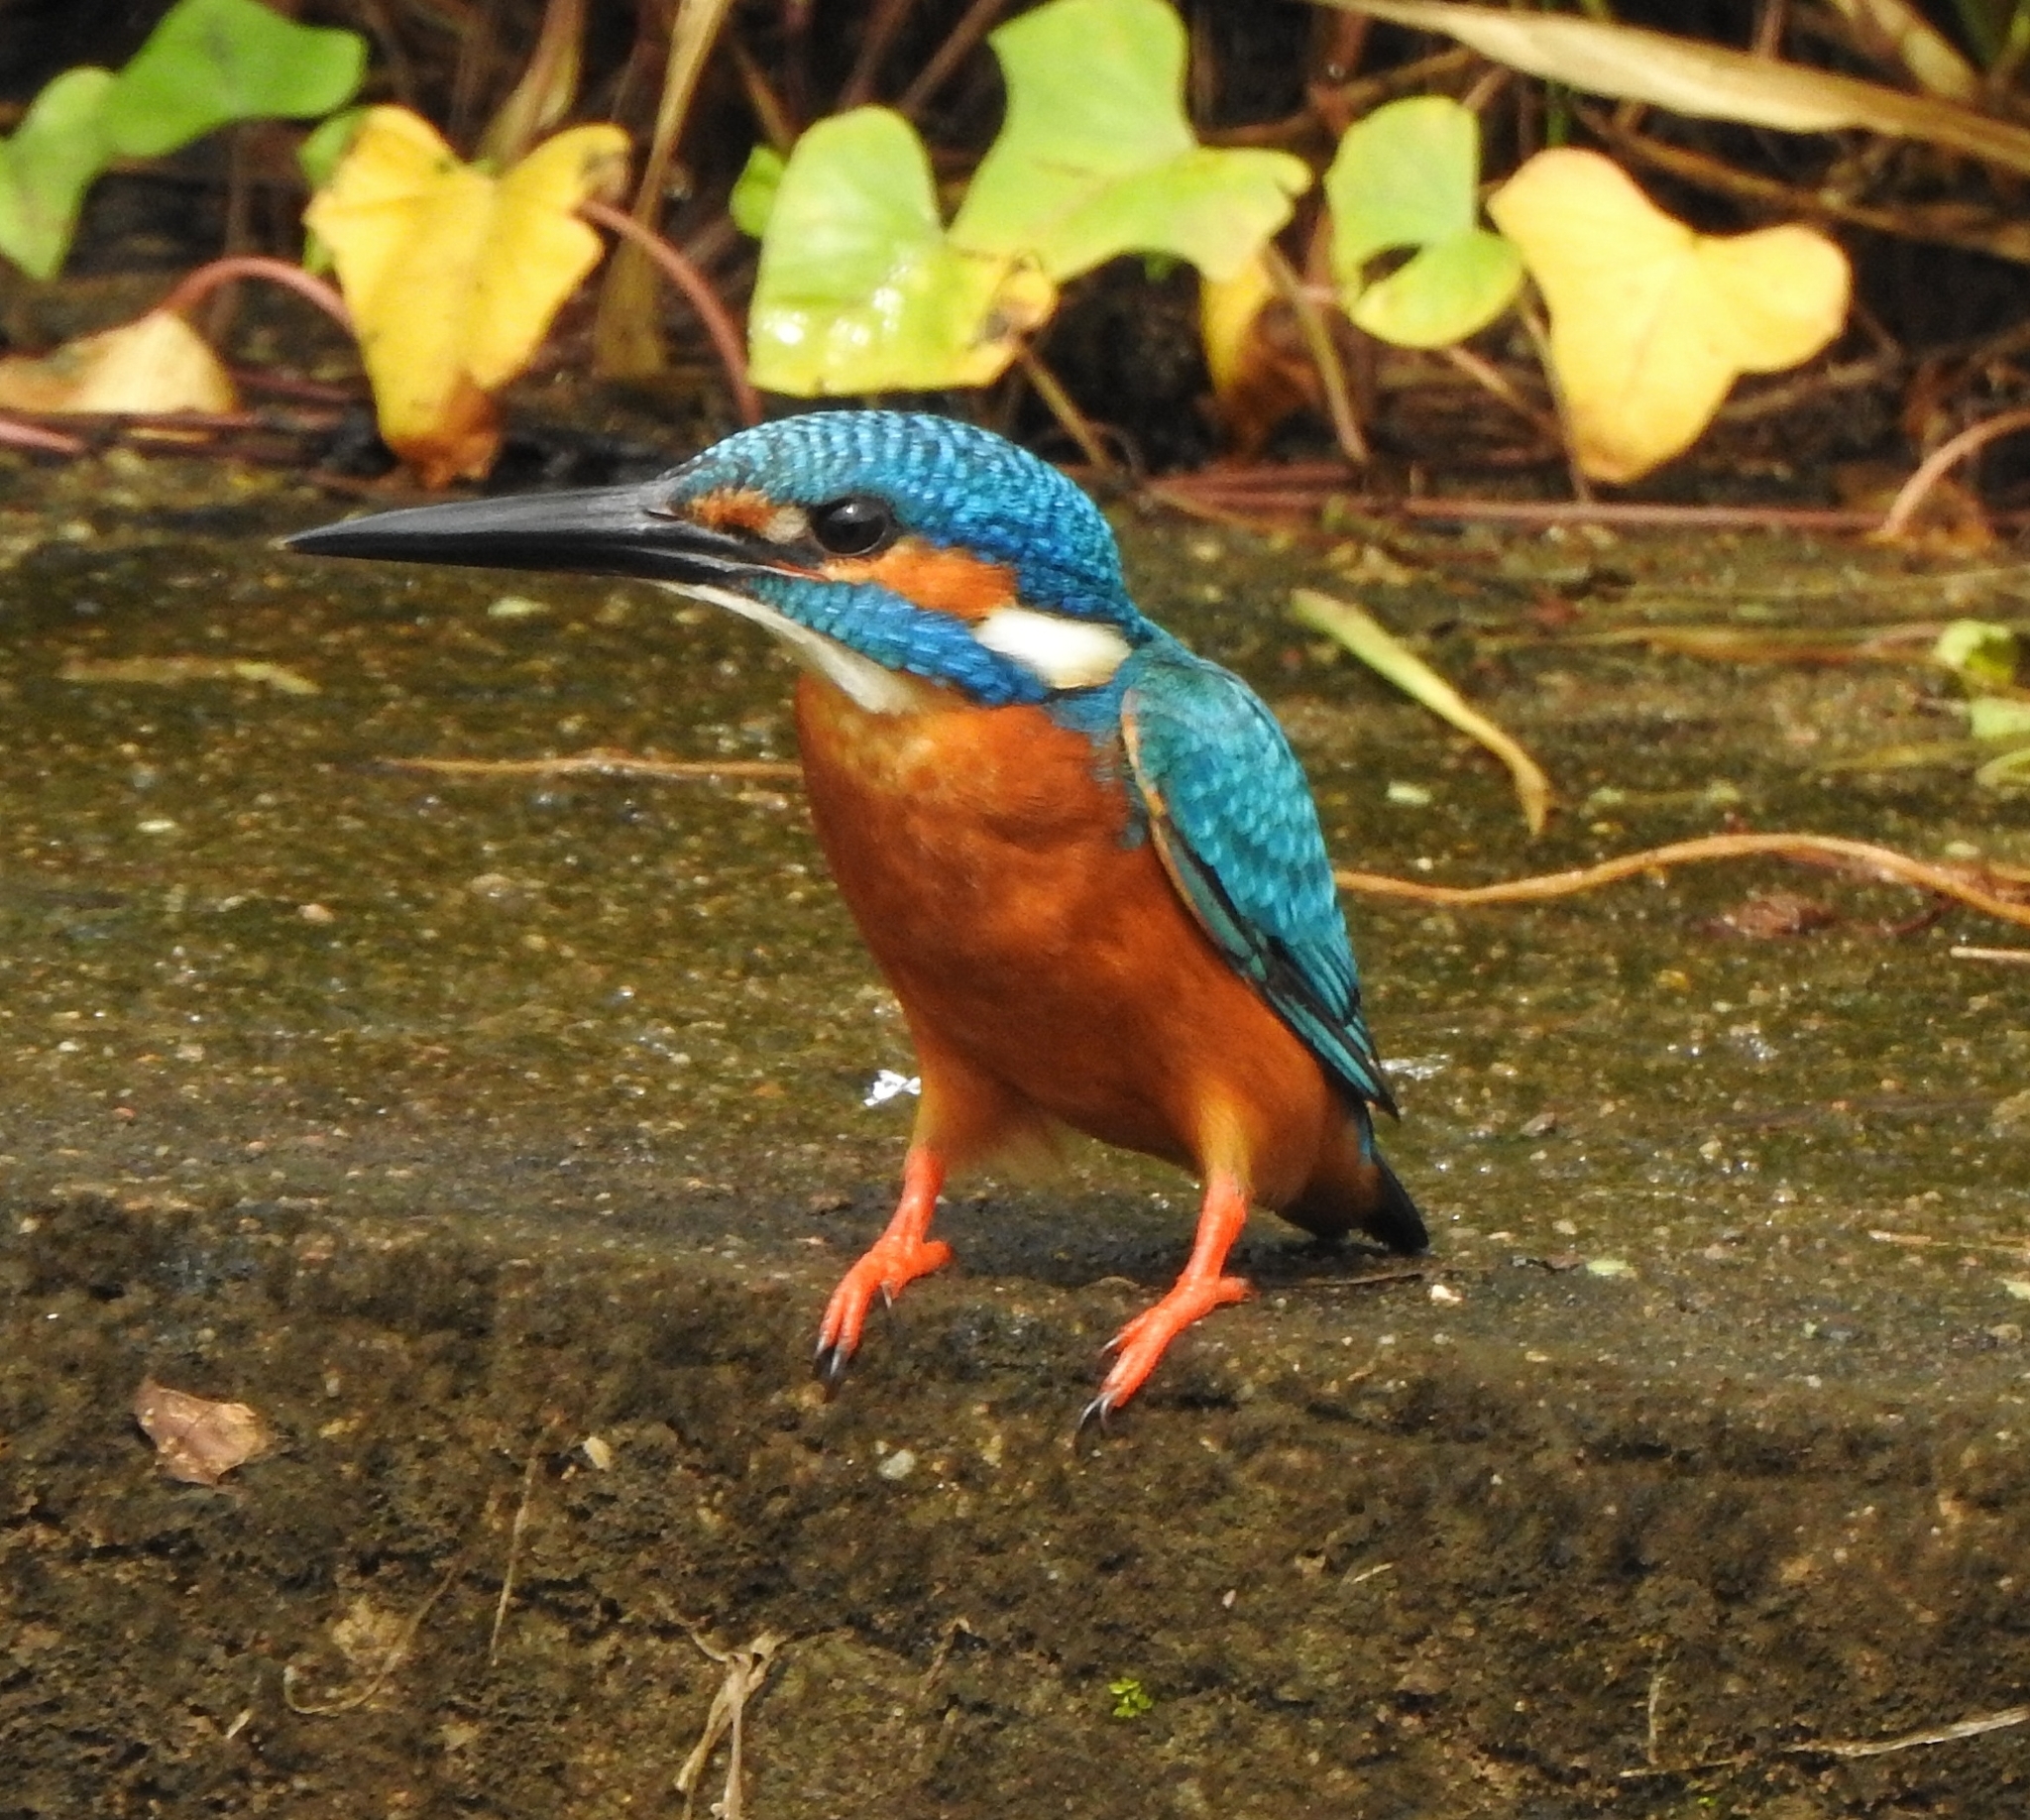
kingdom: Animalia
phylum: Chordata
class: Aves
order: Coraciiformes
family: Alcedinidae
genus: Alcedo
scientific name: Alcedo atthis
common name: Common kingfisher
